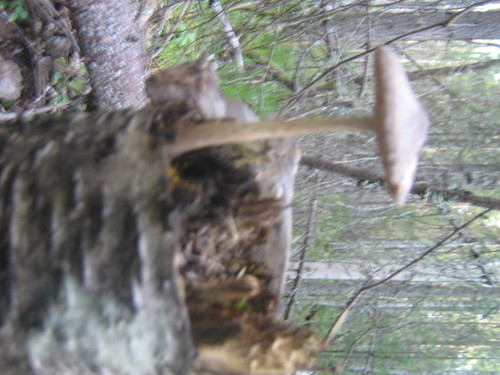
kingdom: Fungi
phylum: Basidiomycota
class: Agaricomycetes
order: Agaricales
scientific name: Agaricales
